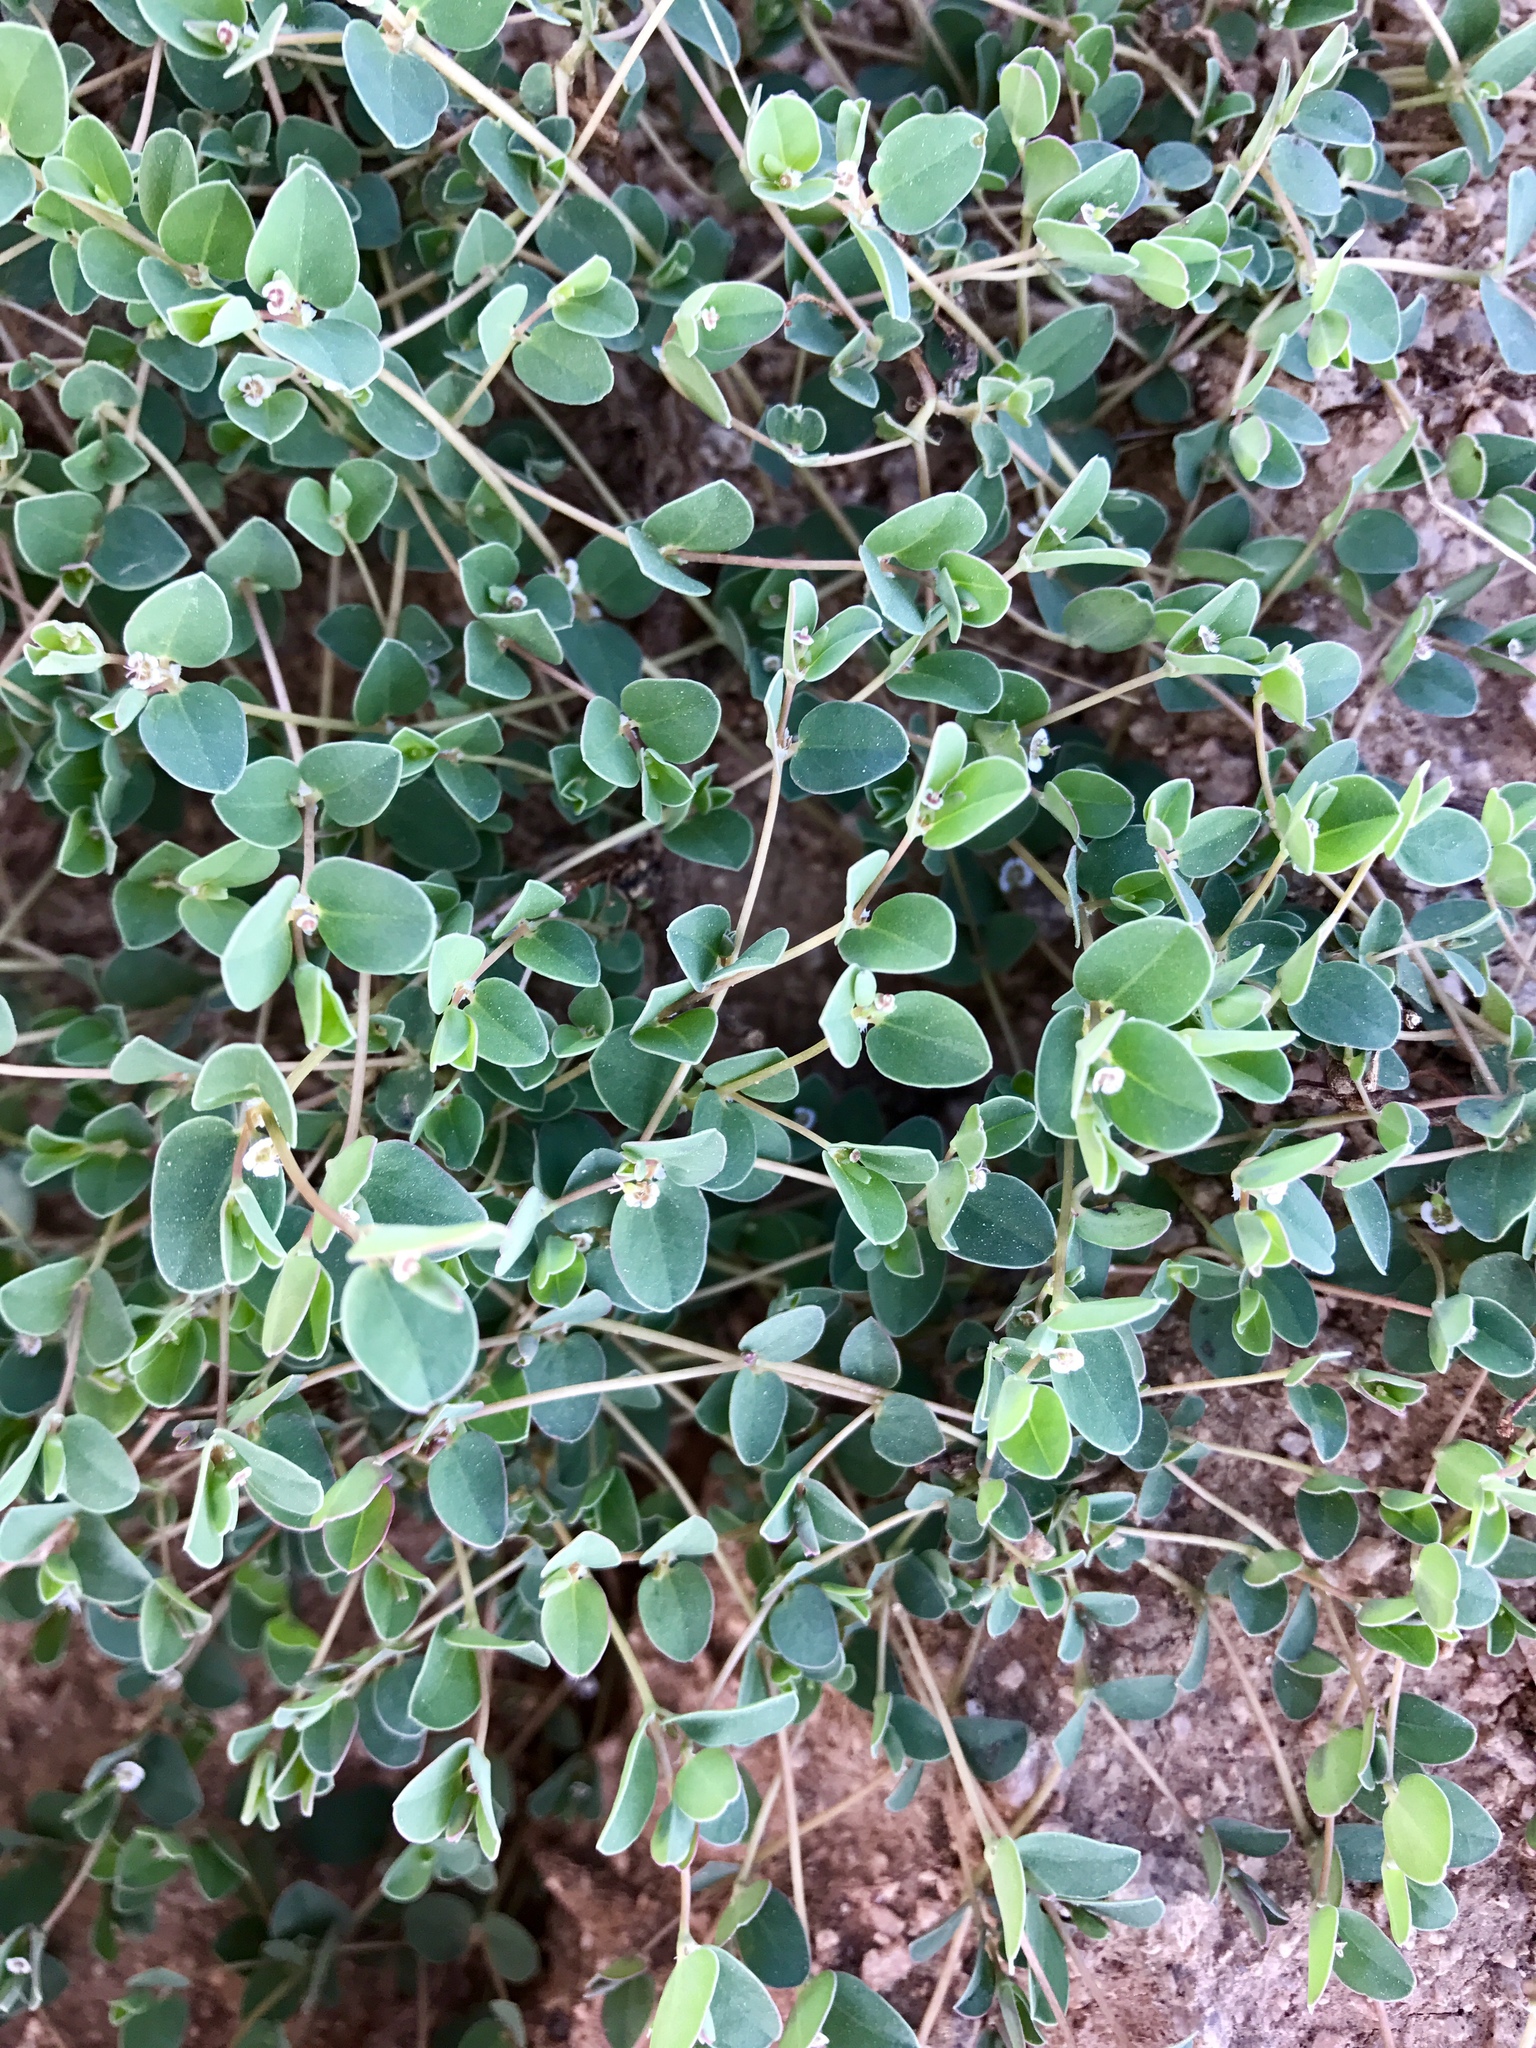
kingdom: Plantae
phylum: Tracheophyta
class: Magnoliopsida
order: Malpighiales
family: Euphorbiaceae
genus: Euphorbia
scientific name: Euphorbia albomarginata
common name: Whitemargin sandmat
